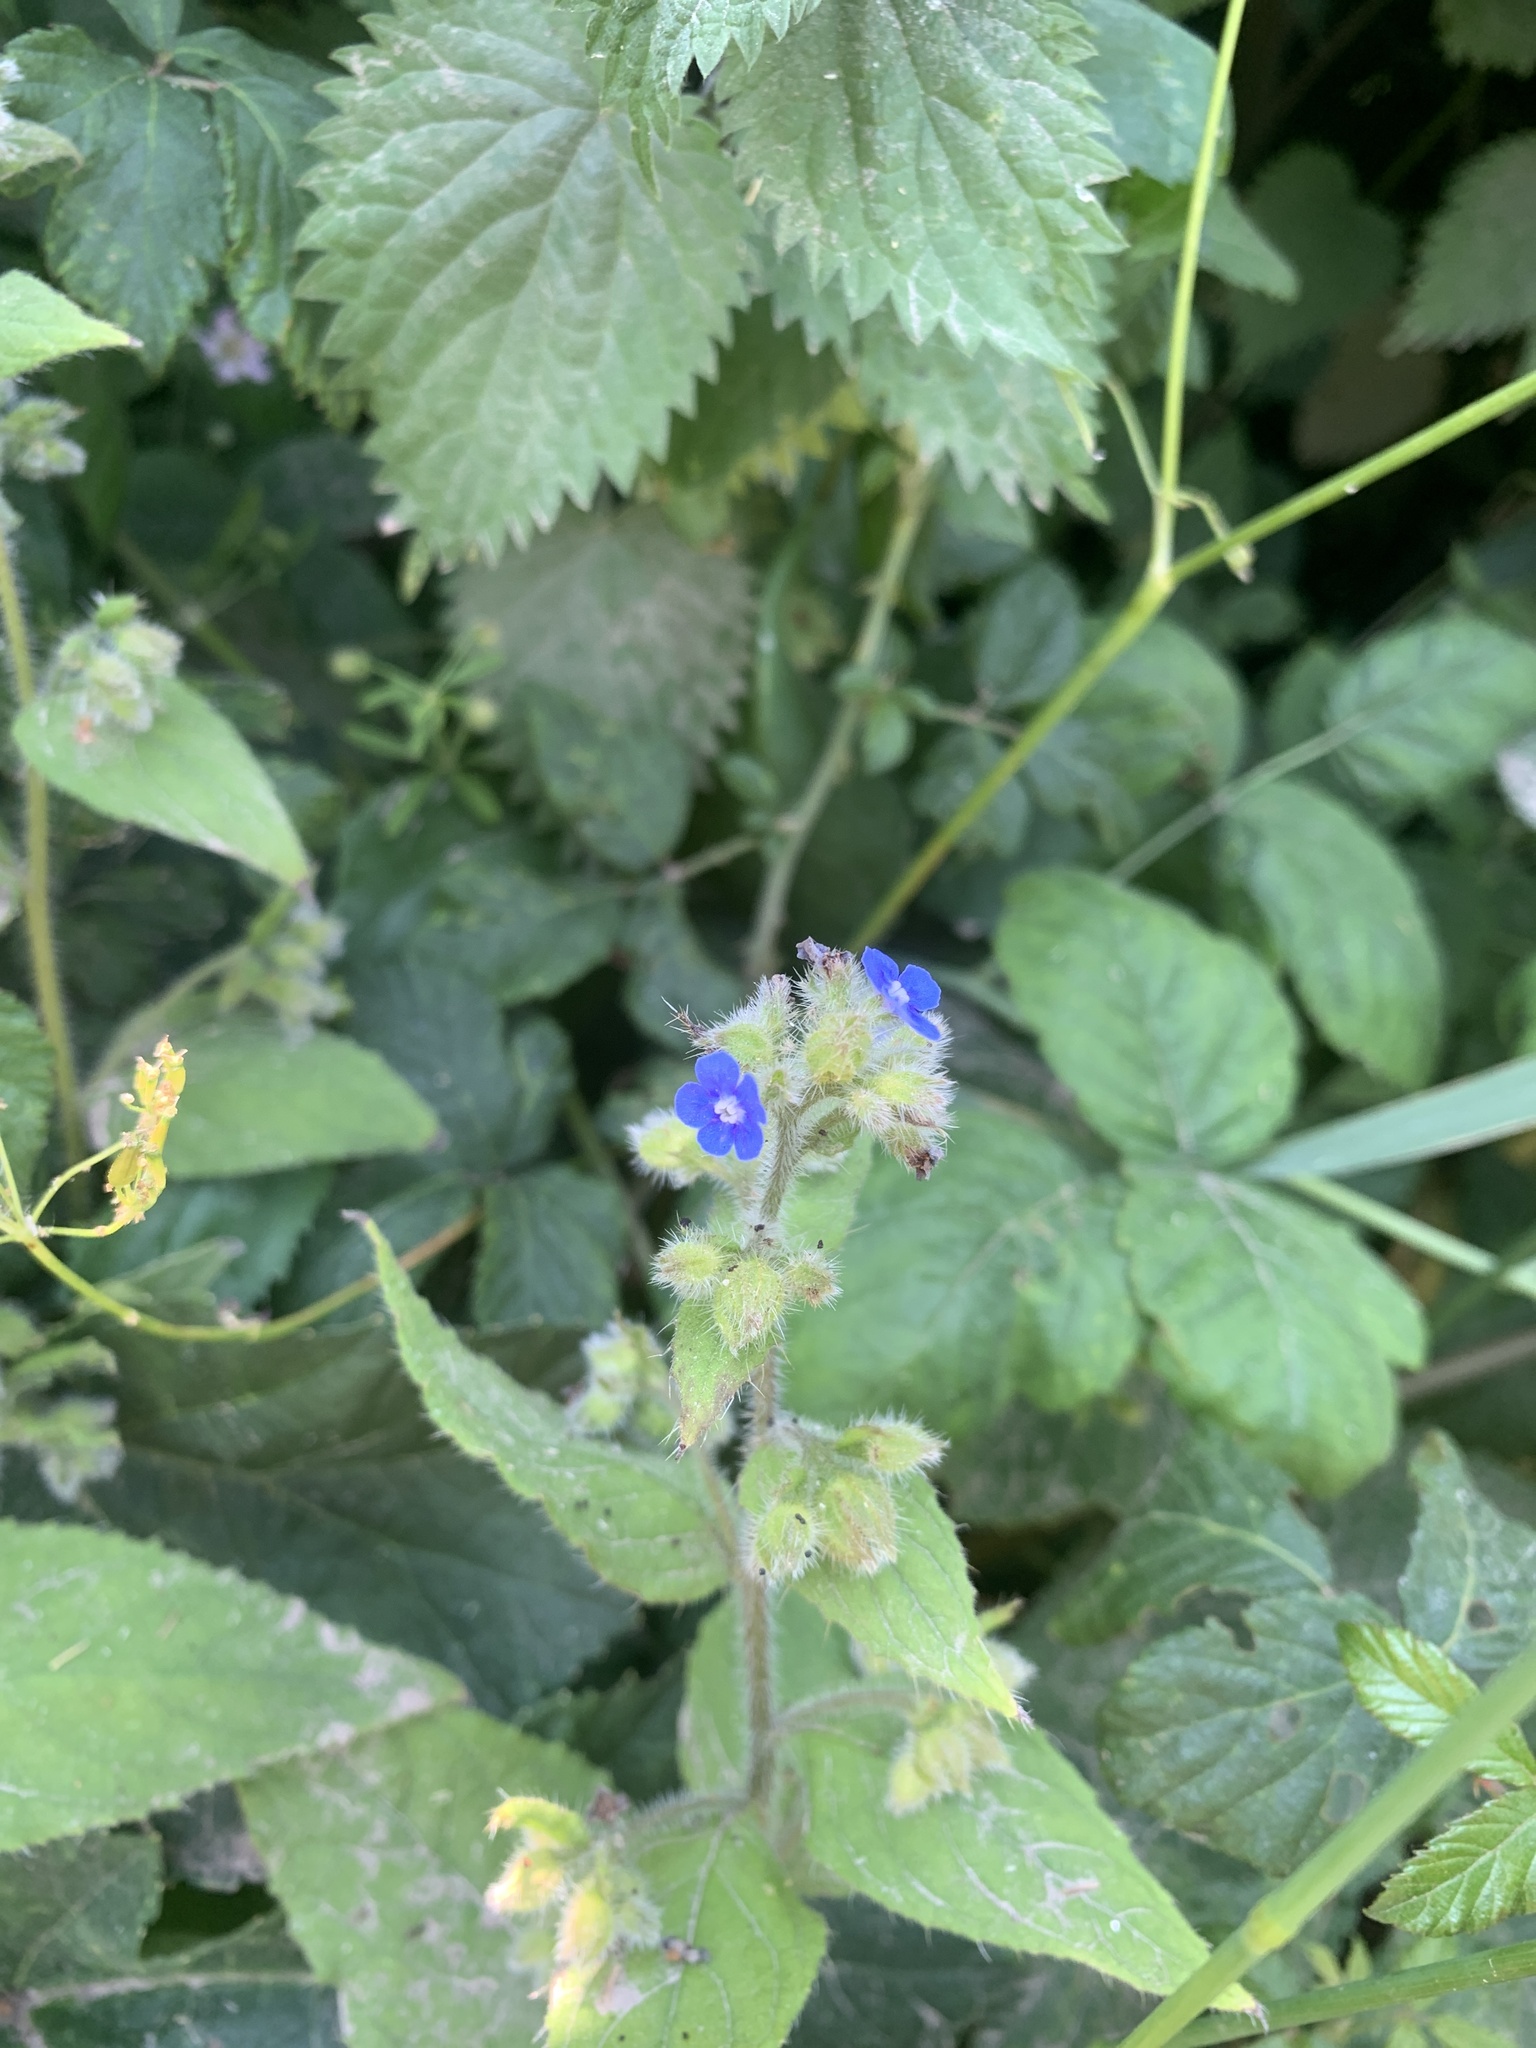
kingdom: Plantae
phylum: Tracheophyta
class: Magnoliopsida
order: Boraginales
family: Boraginaceae
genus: Pentaglottis
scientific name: Pentaglottis sempervirens
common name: Green alkanet
